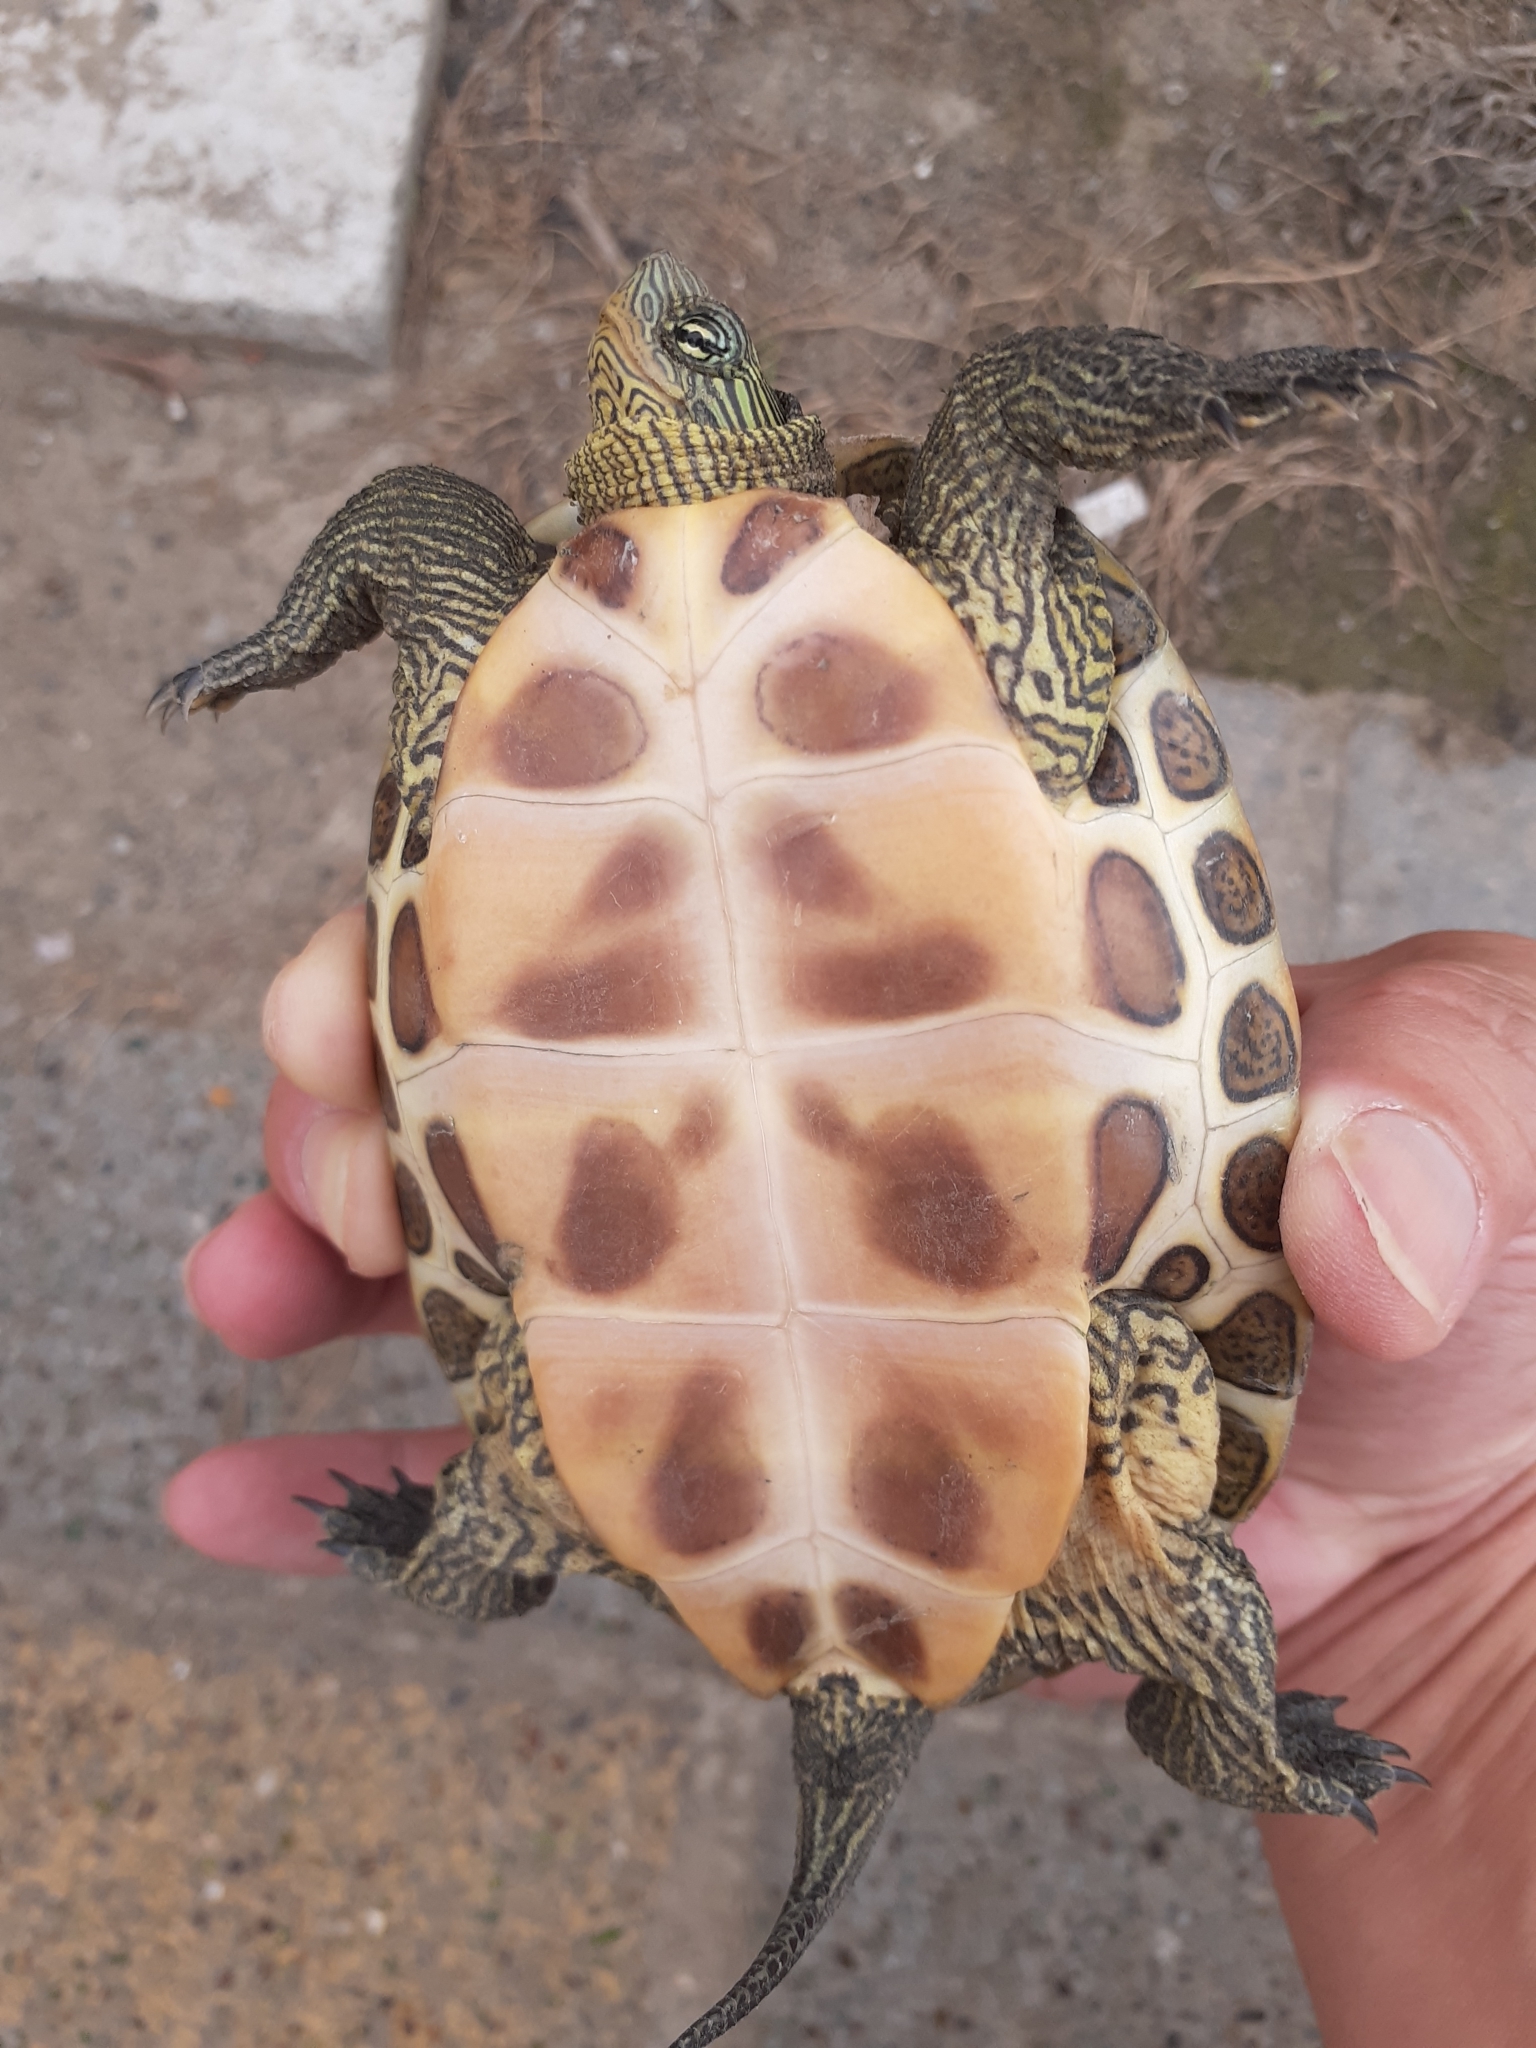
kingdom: Animalia
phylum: Chordata
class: Testudines
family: Geoemydidae
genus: Mauremys
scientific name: Mauremys sinensis
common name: Chinese stripe-necked turtle
